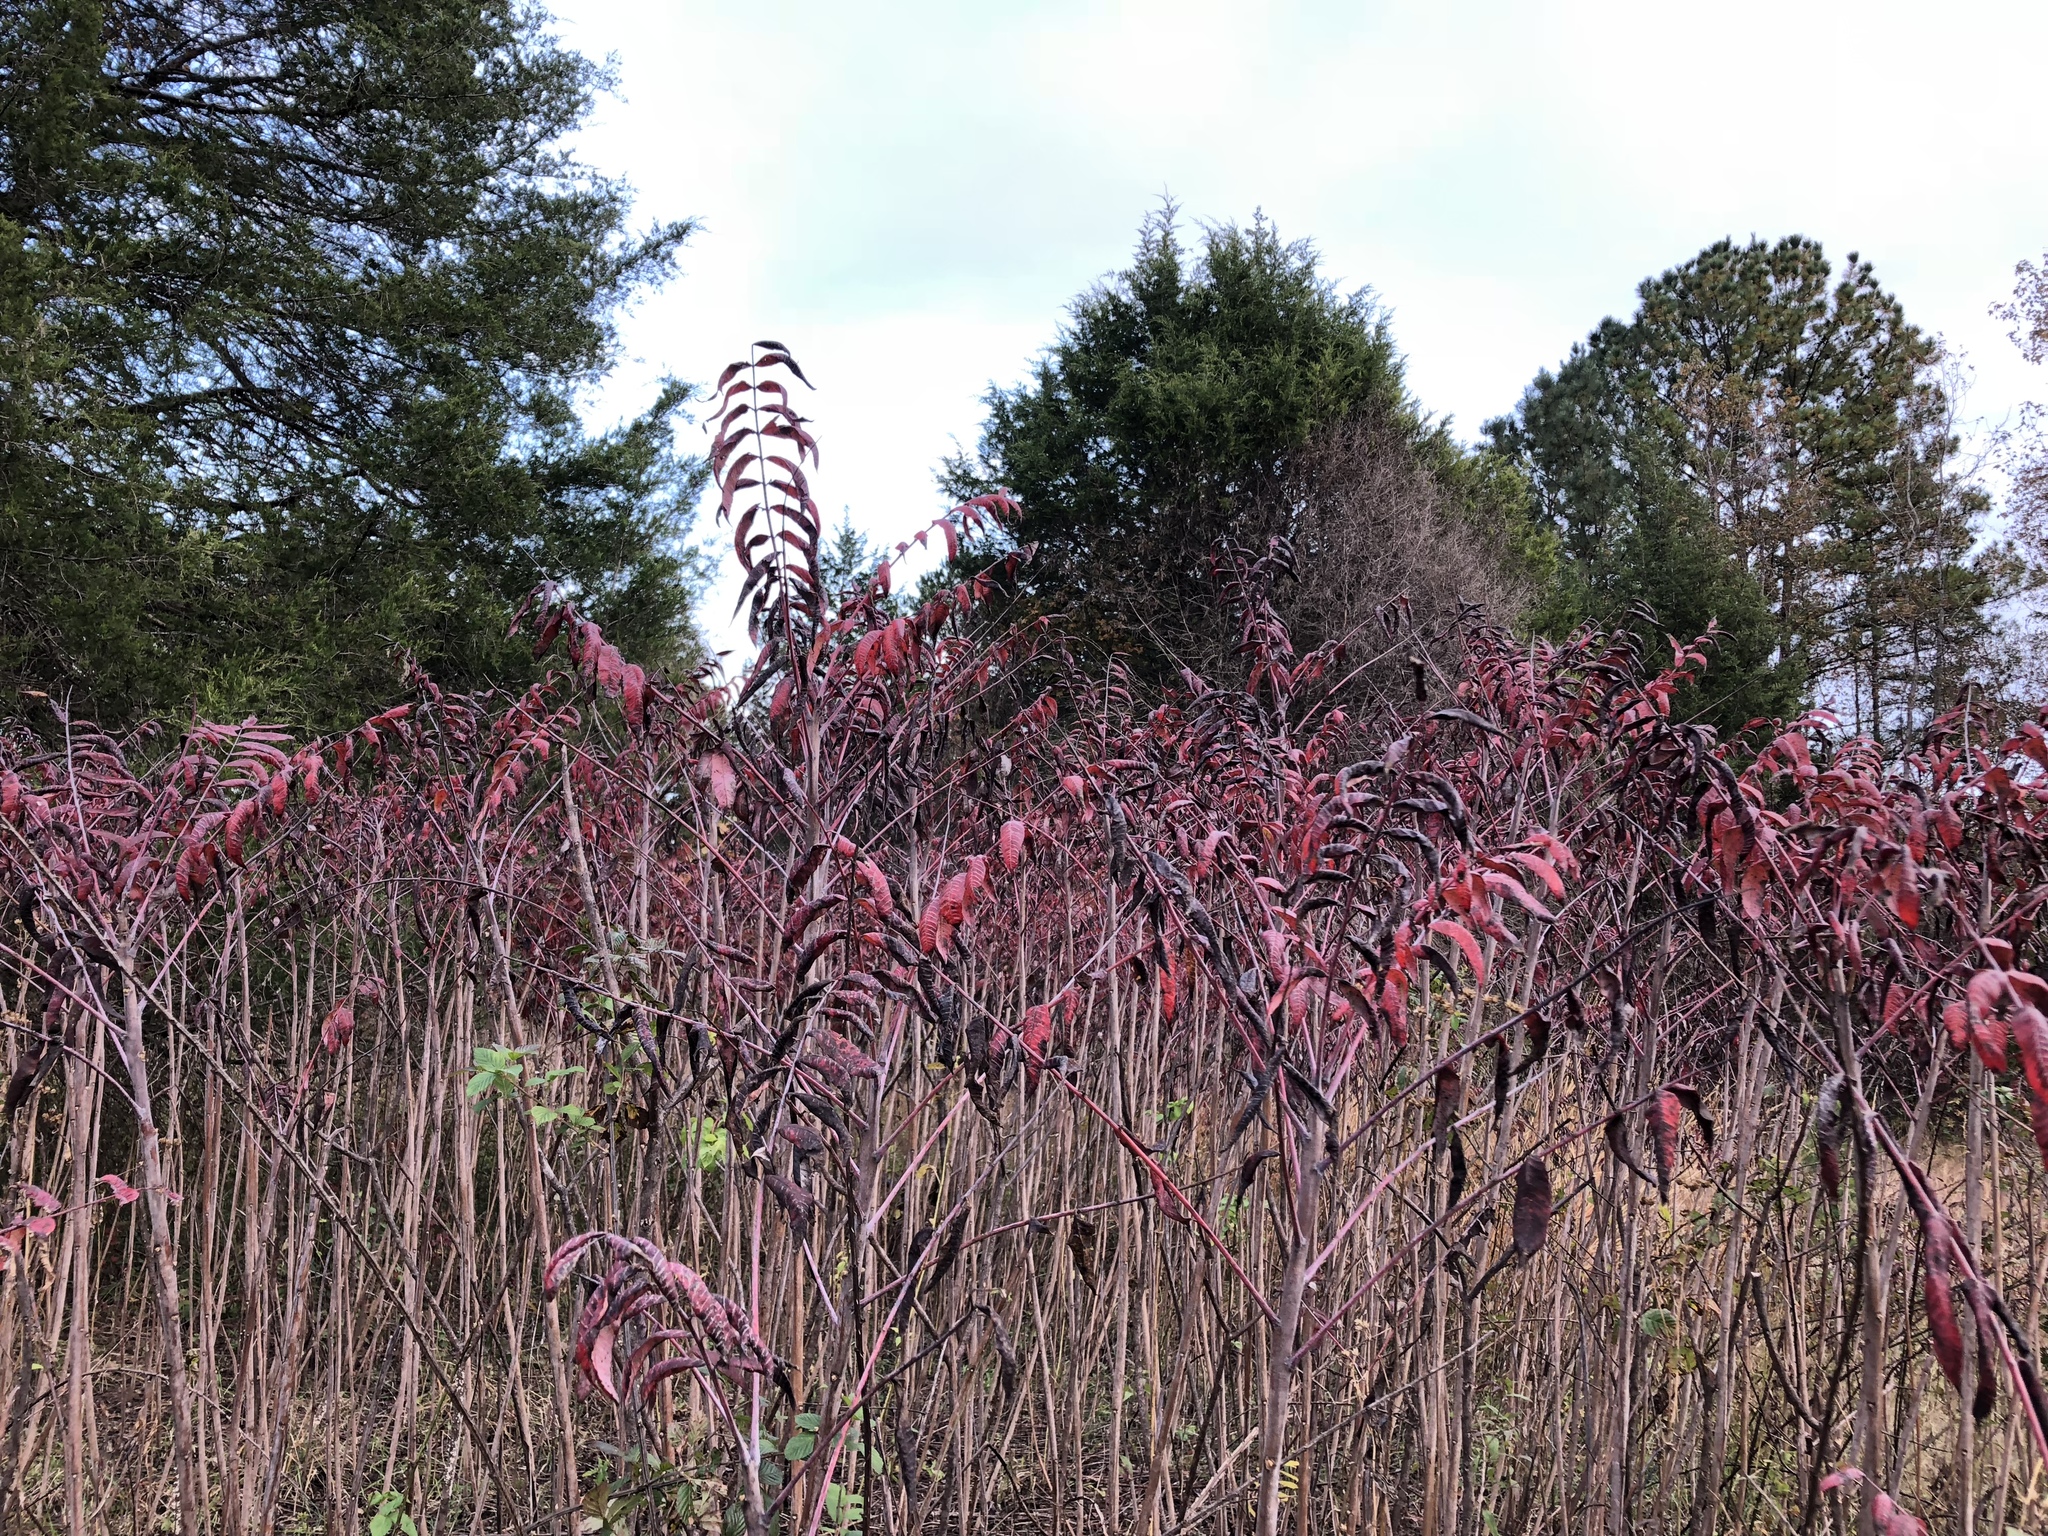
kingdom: Plantae
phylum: Tracheophyta
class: Magnoliopsida
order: Sapindales
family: Anacardiaceae
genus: Rhus
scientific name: Rhus glabra
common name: Scarlet sumac
